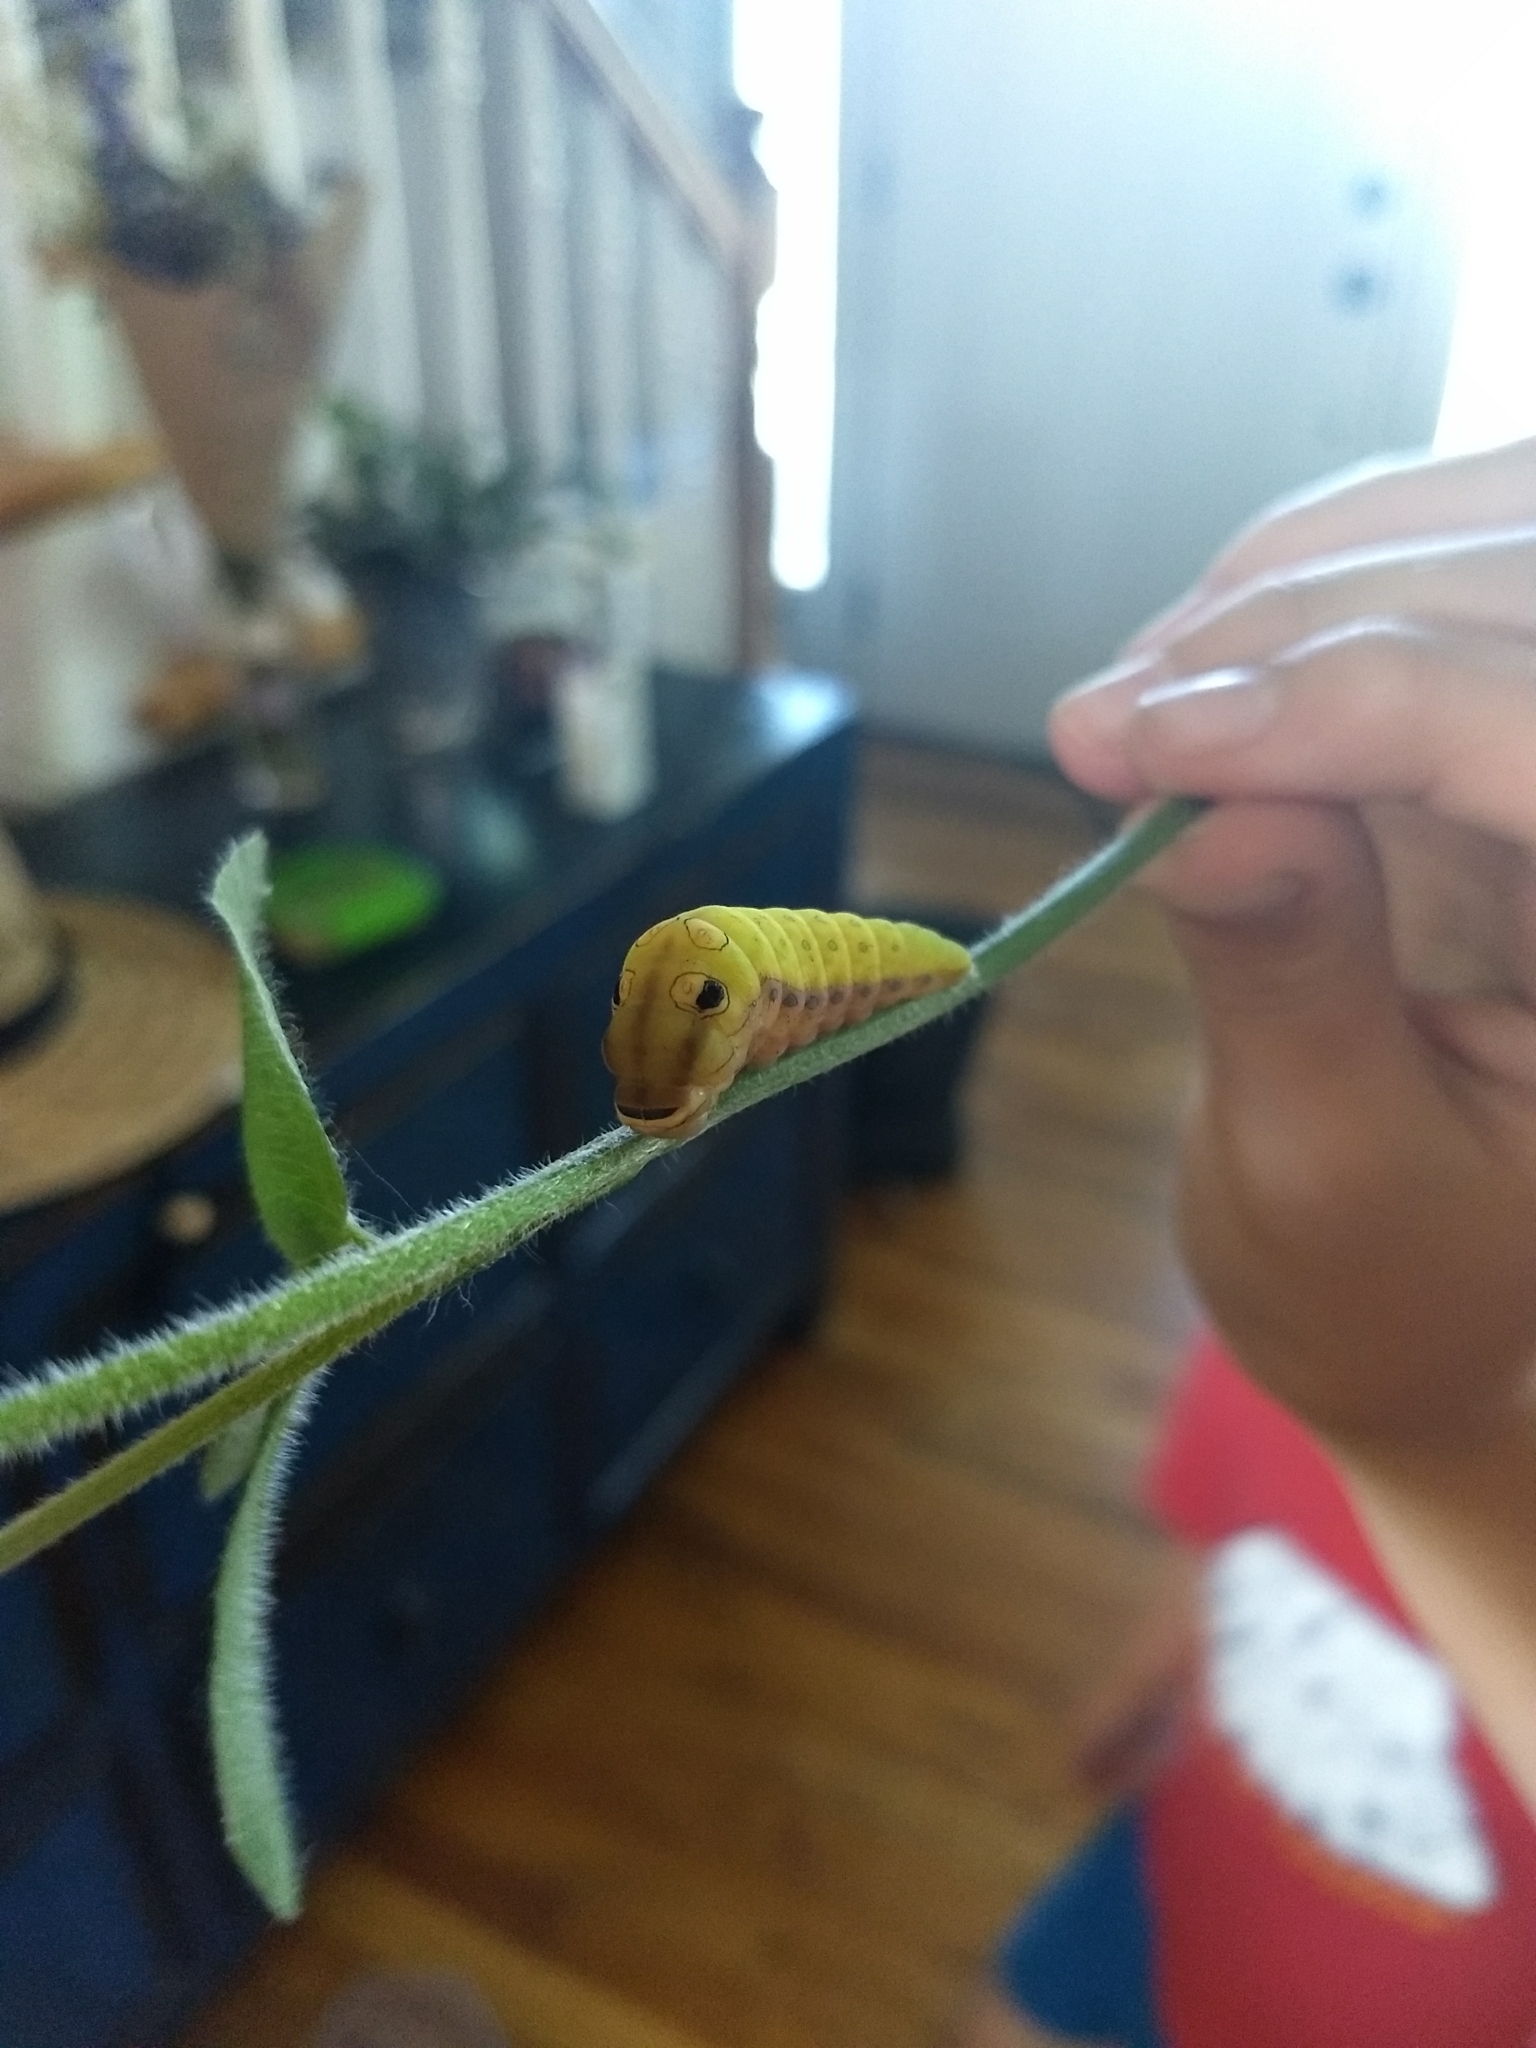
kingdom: Animalia
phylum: Arthropoda
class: Insecta
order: Lepidoptera
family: Papilionidae
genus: Papilio
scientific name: Papilio troilus
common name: Spicebush swallowtail
